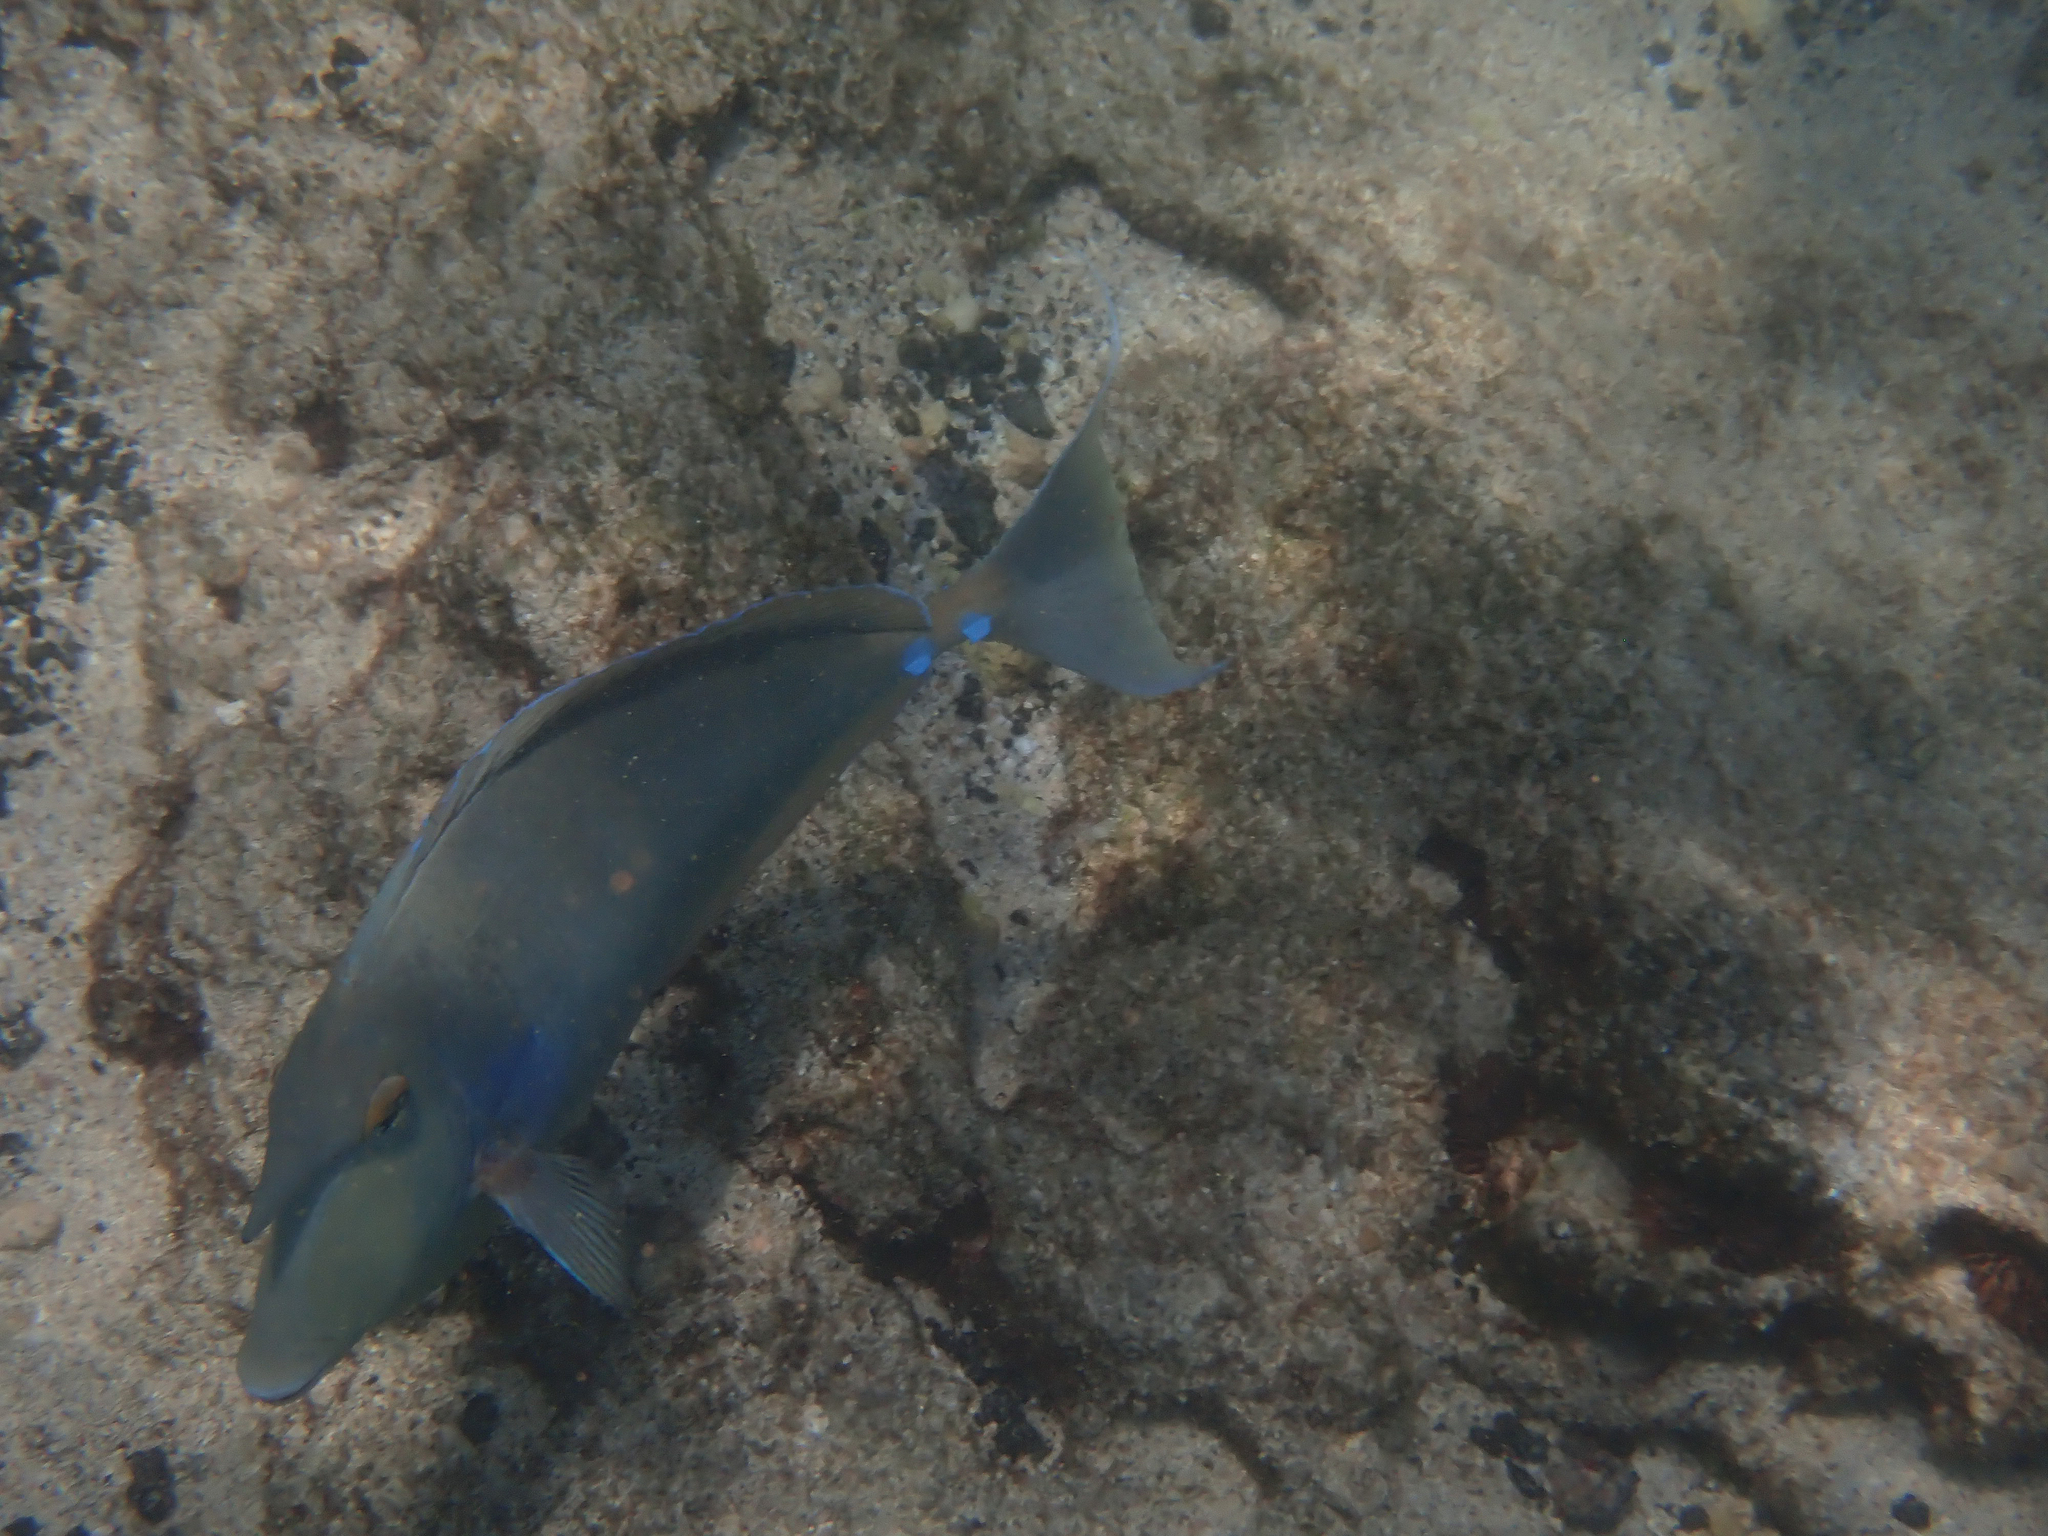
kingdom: Animalia
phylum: Chordata
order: Perciformes
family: Acanthuridae
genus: Naso
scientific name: Naso unicornis
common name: Bluespine unicornfish
